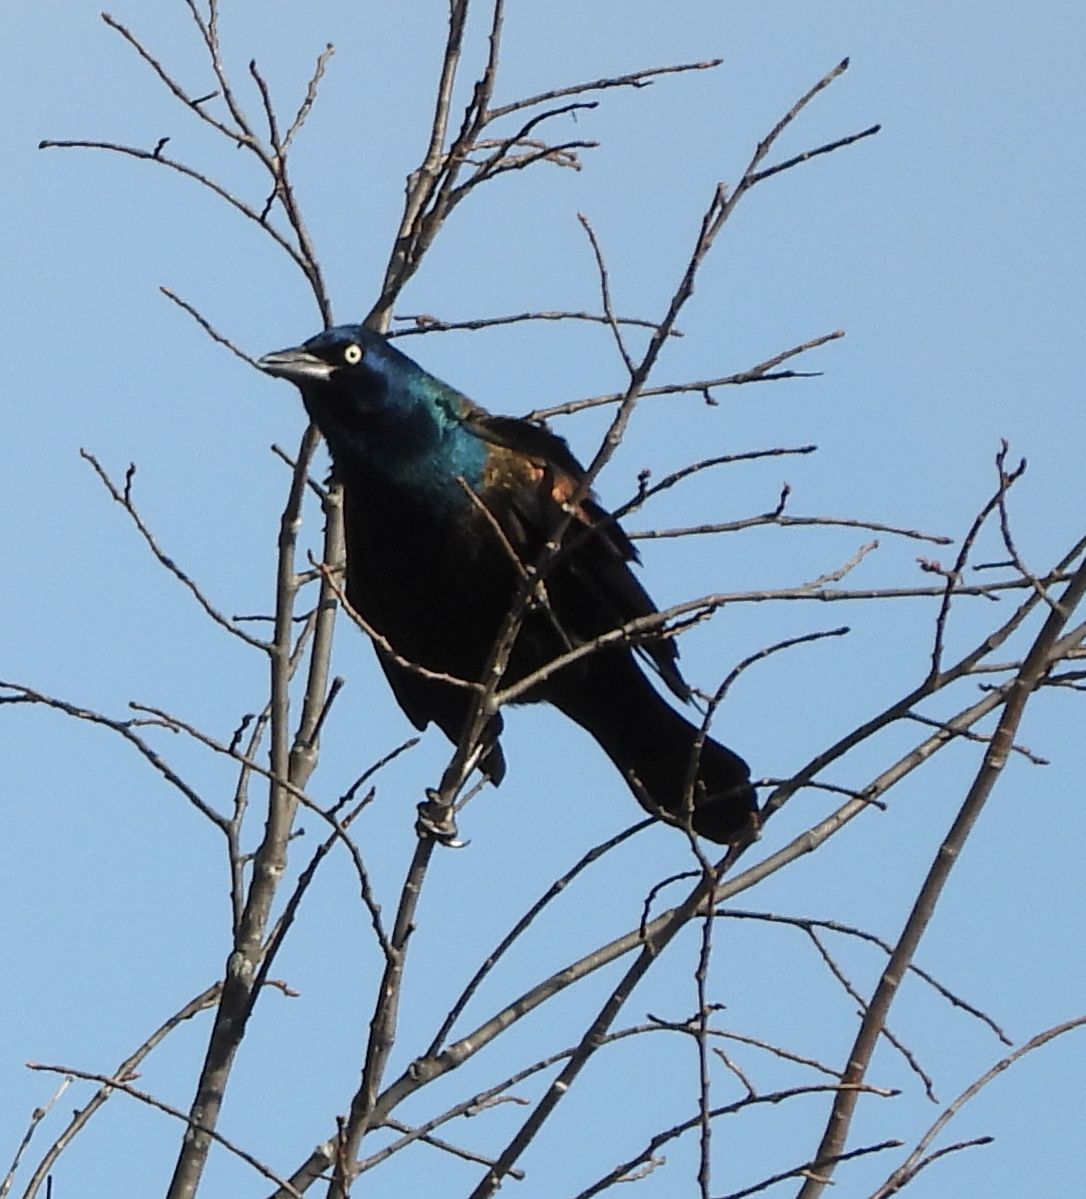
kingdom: Animalia
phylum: Chordata
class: Aves
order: Passeriformes
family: Icteridae
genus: Quiscalus
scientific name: Quiscalus quiscula
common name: Common grackle
